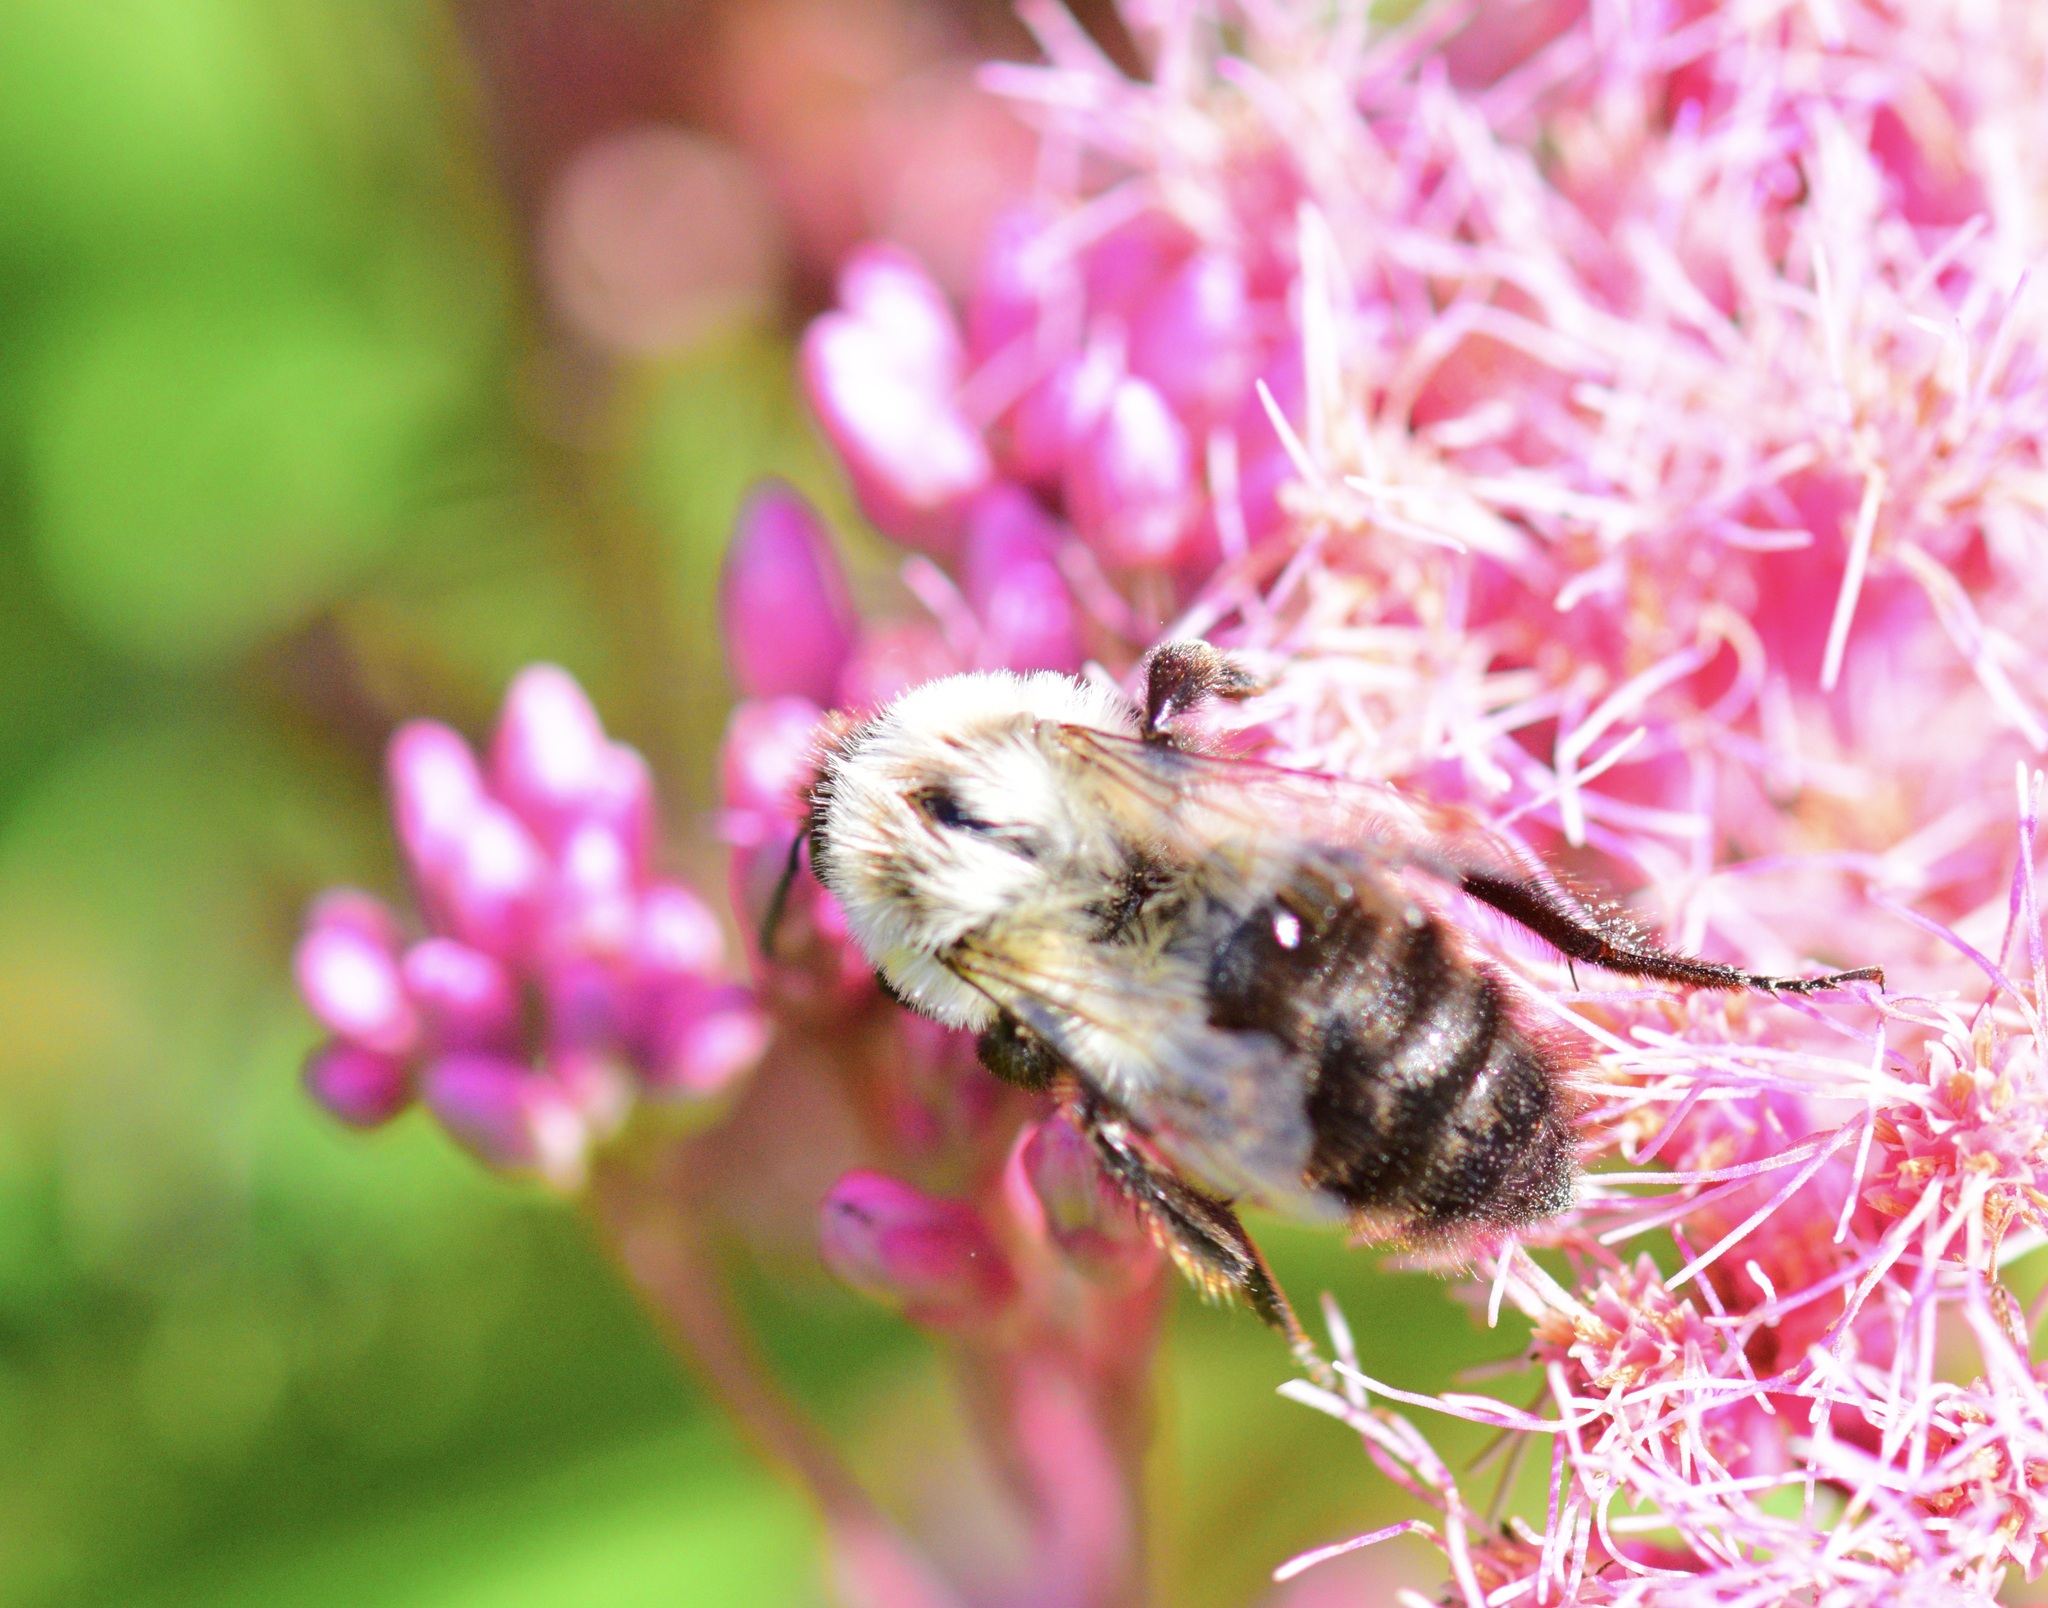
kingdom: Animalia
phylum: Arthropoda
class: Insecta
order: Hymenoptera
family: Apidae
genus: Bombus
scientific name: Bombus impatiens
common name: Common eastern bumble bee
